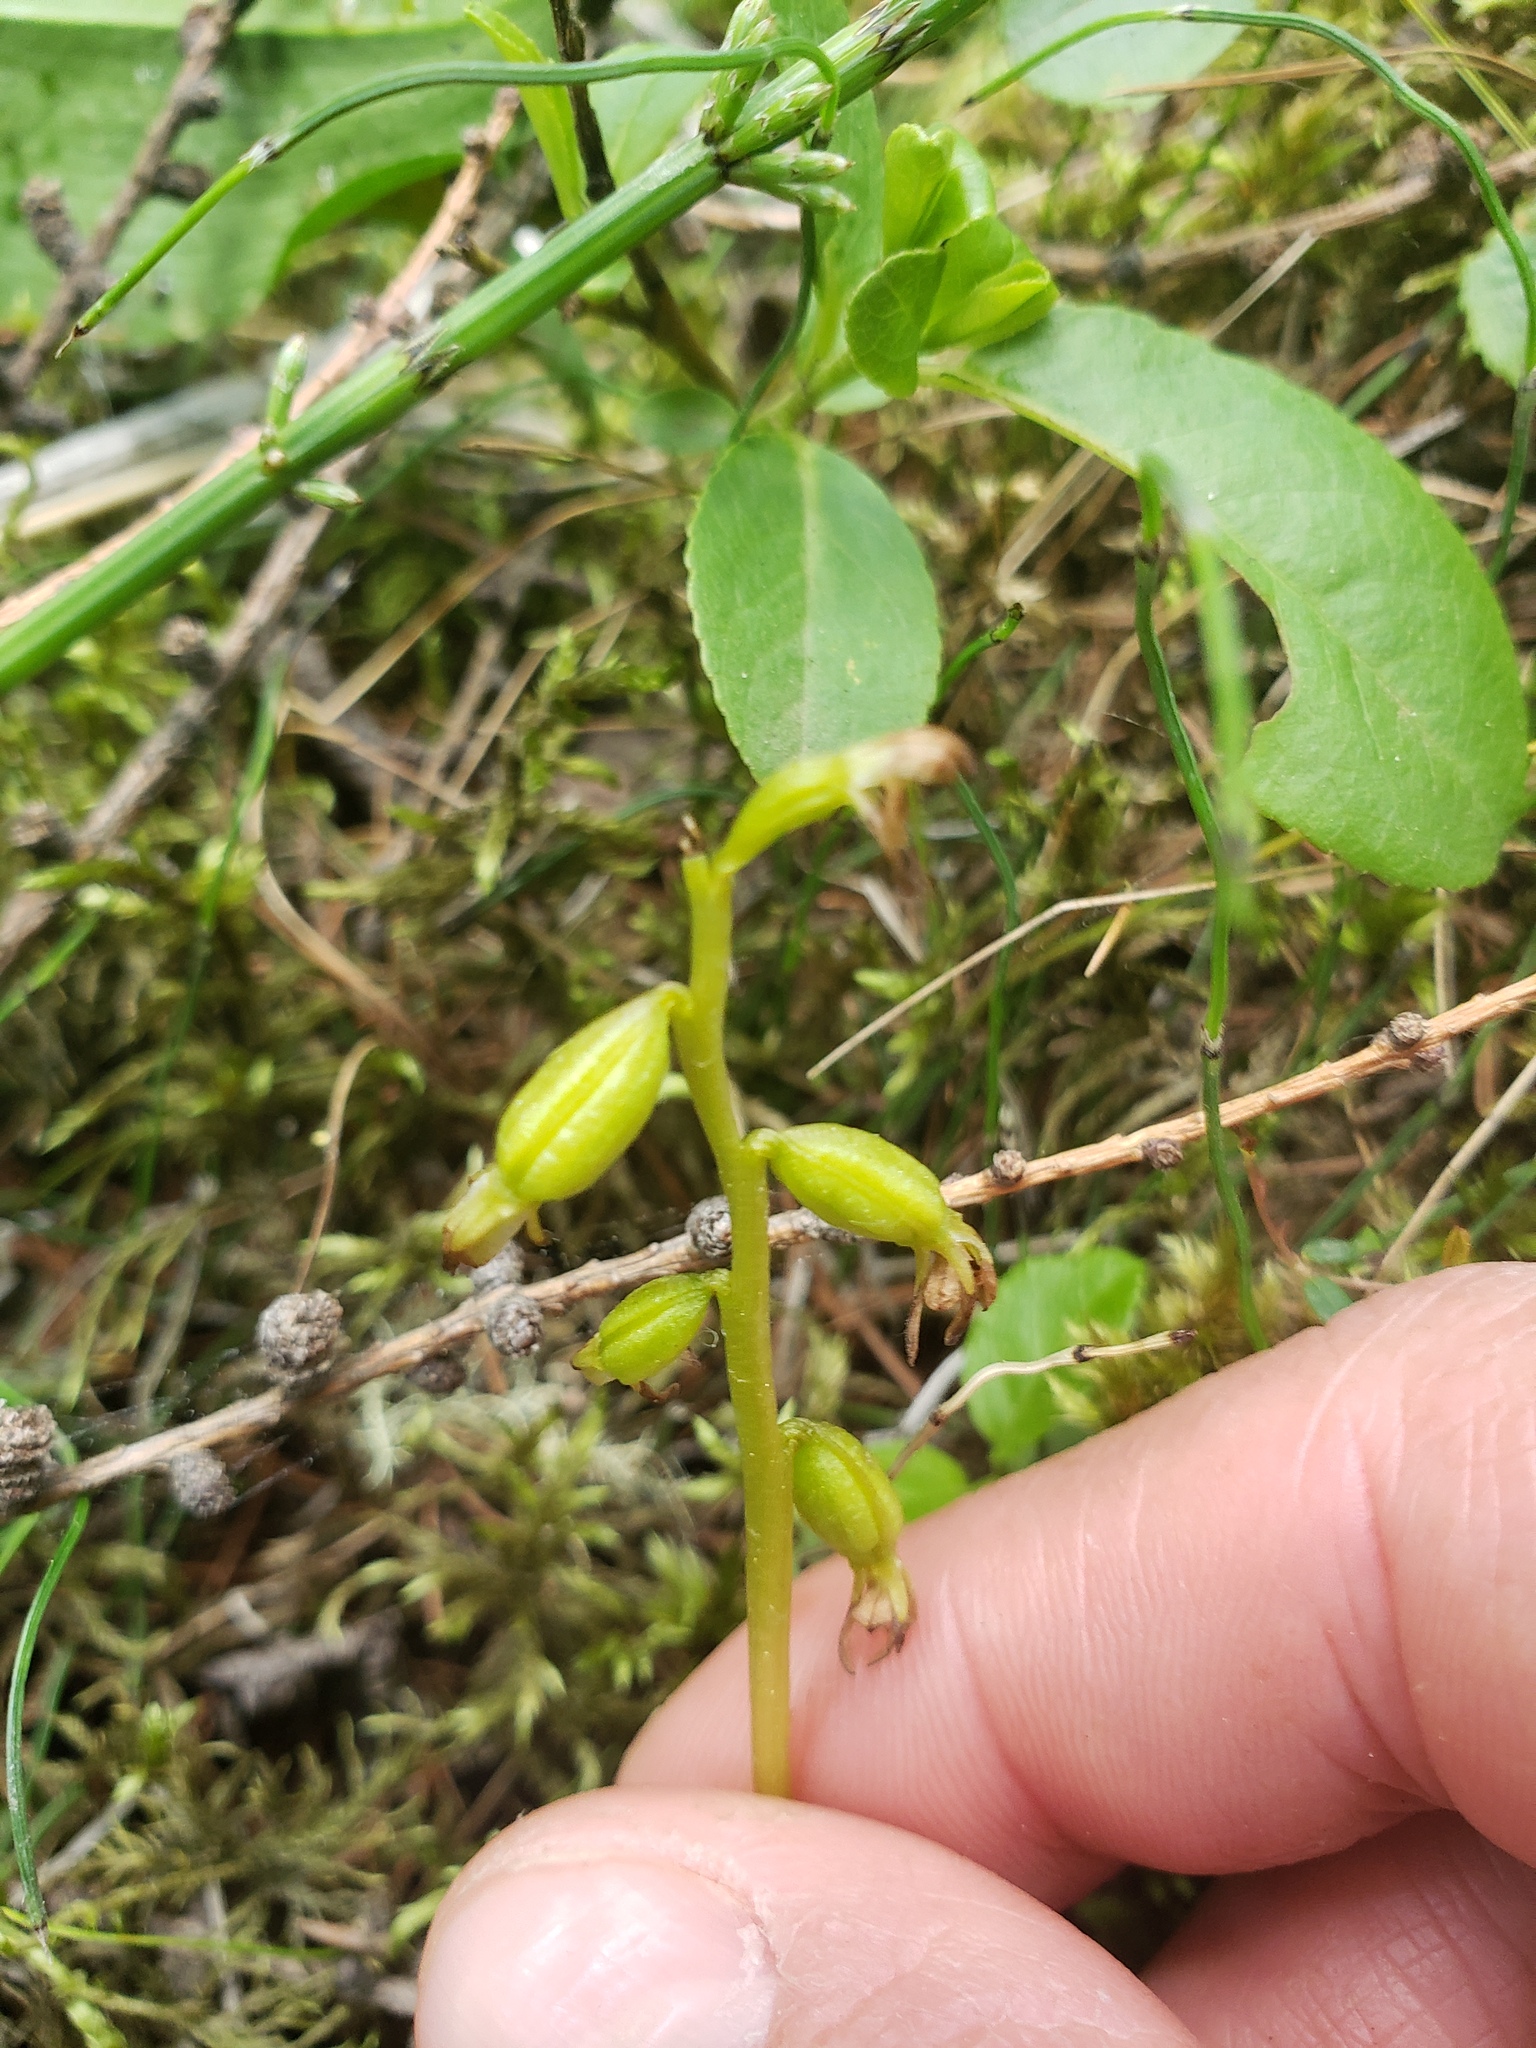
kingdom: Plantae
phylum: Tracheophyta
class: Liliopsida
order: Asparagales
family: Orchidaceae
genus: Corallorhiza
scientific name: Corallorhiza trifida
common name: Yellow coralroot
